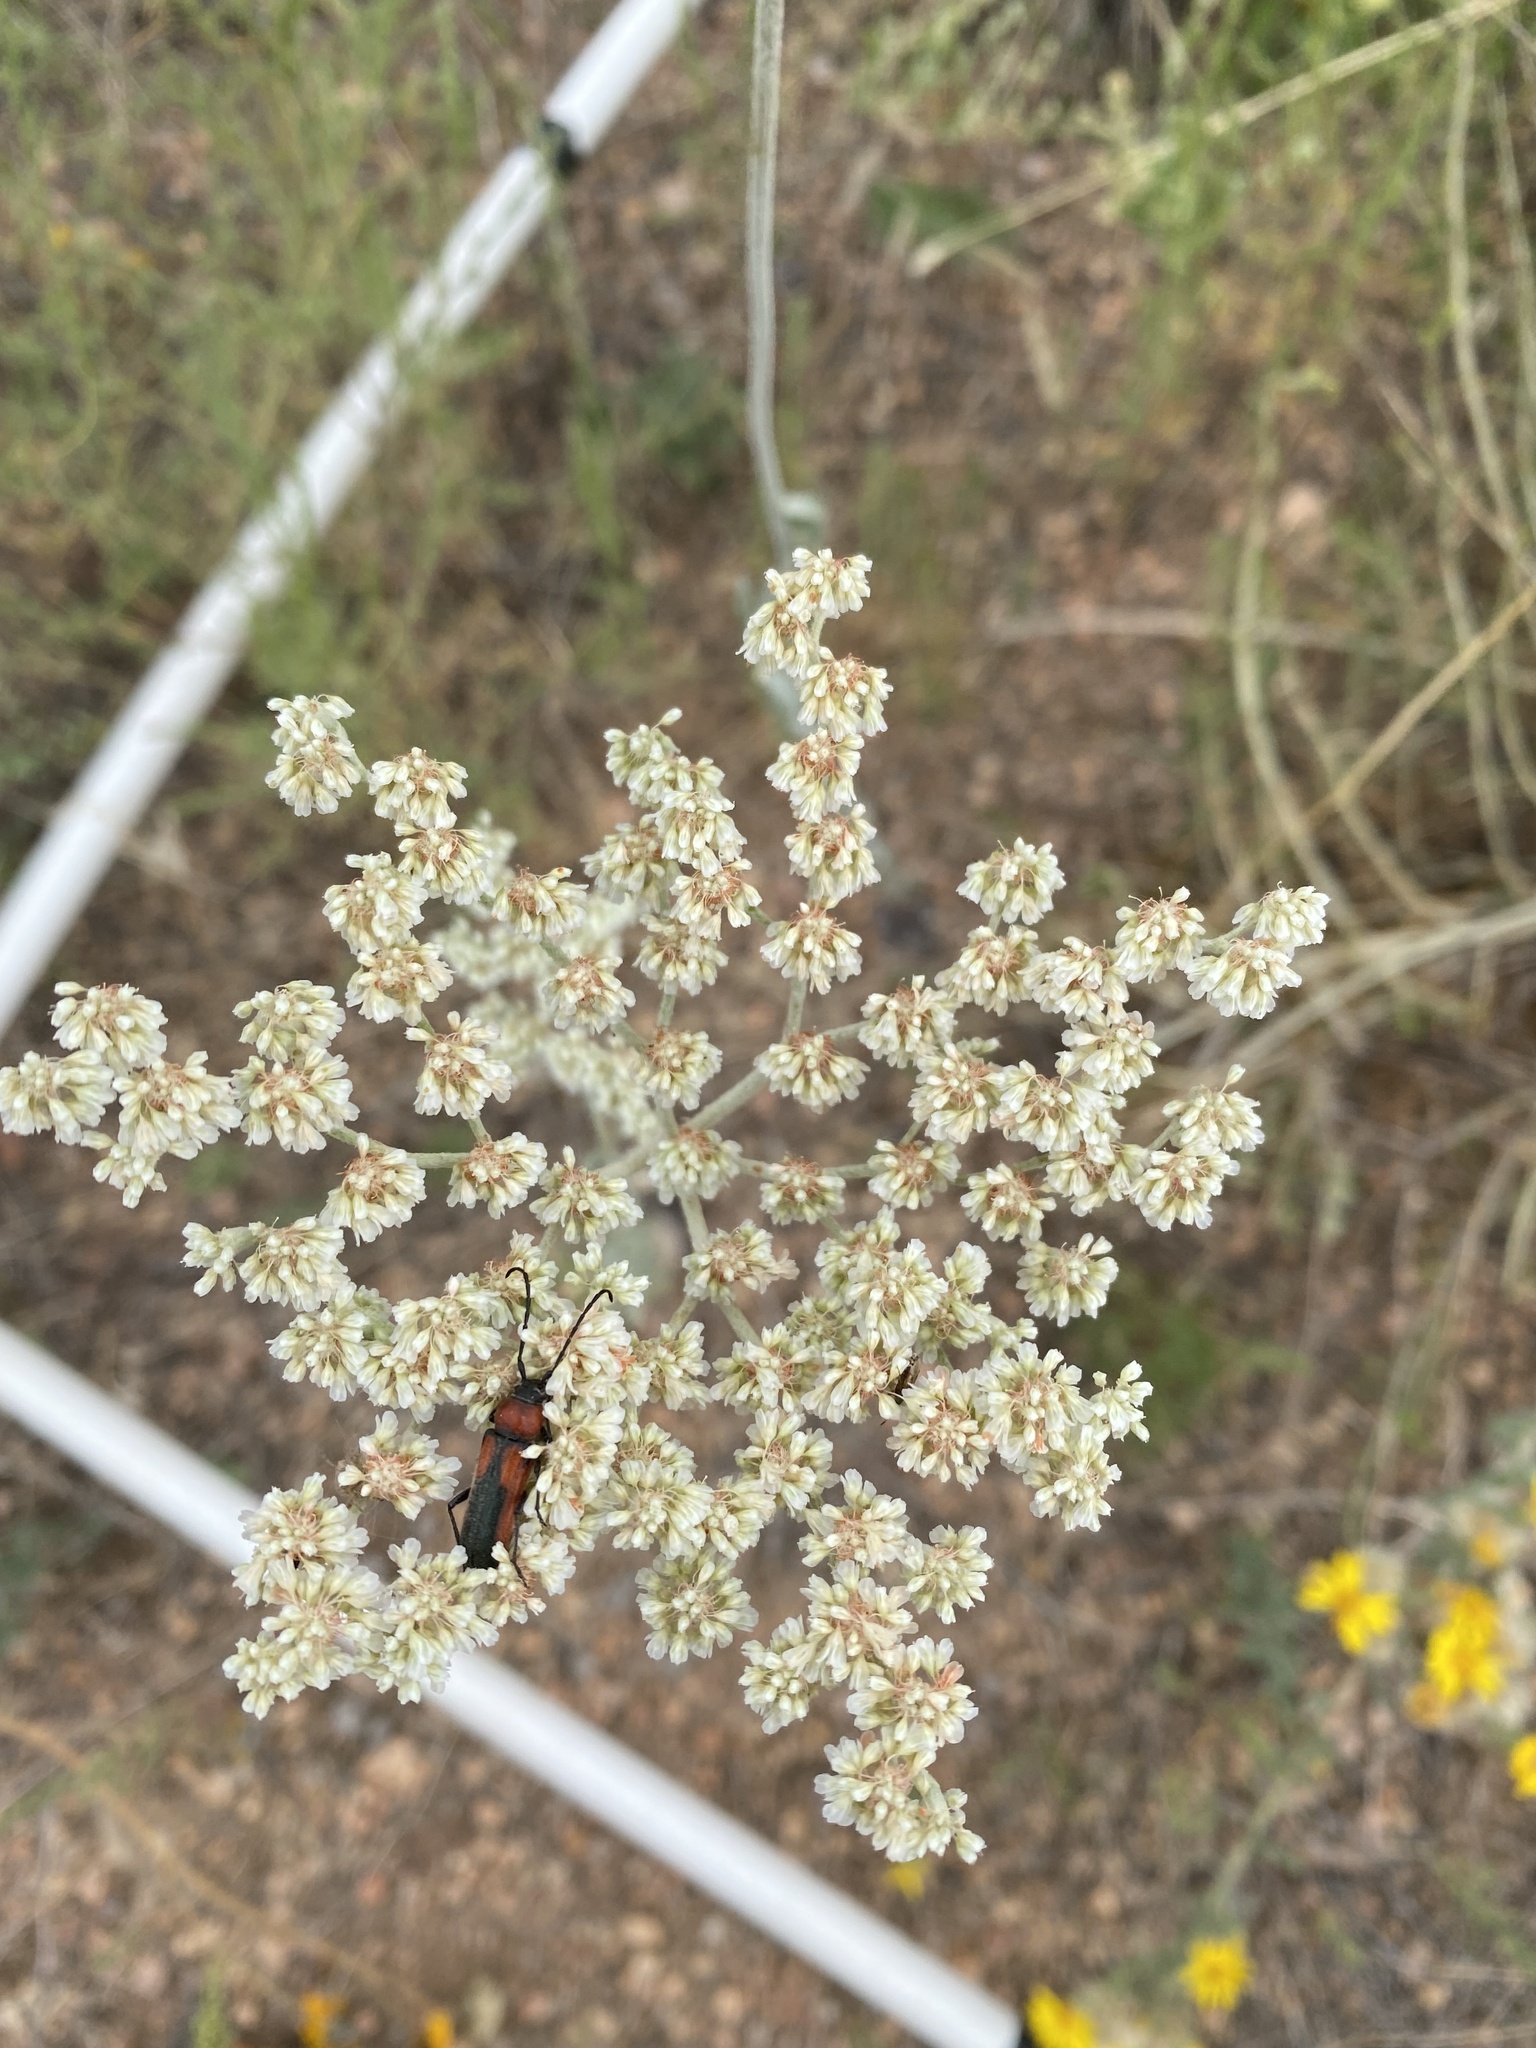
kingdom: Plantae
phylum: Tracheophyta
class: Magnoliopsida
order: Caryophyllales
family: Polygonaceae
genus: Eriogonum
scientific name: Eriogonum annuum
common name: Annual wild buckwheat
